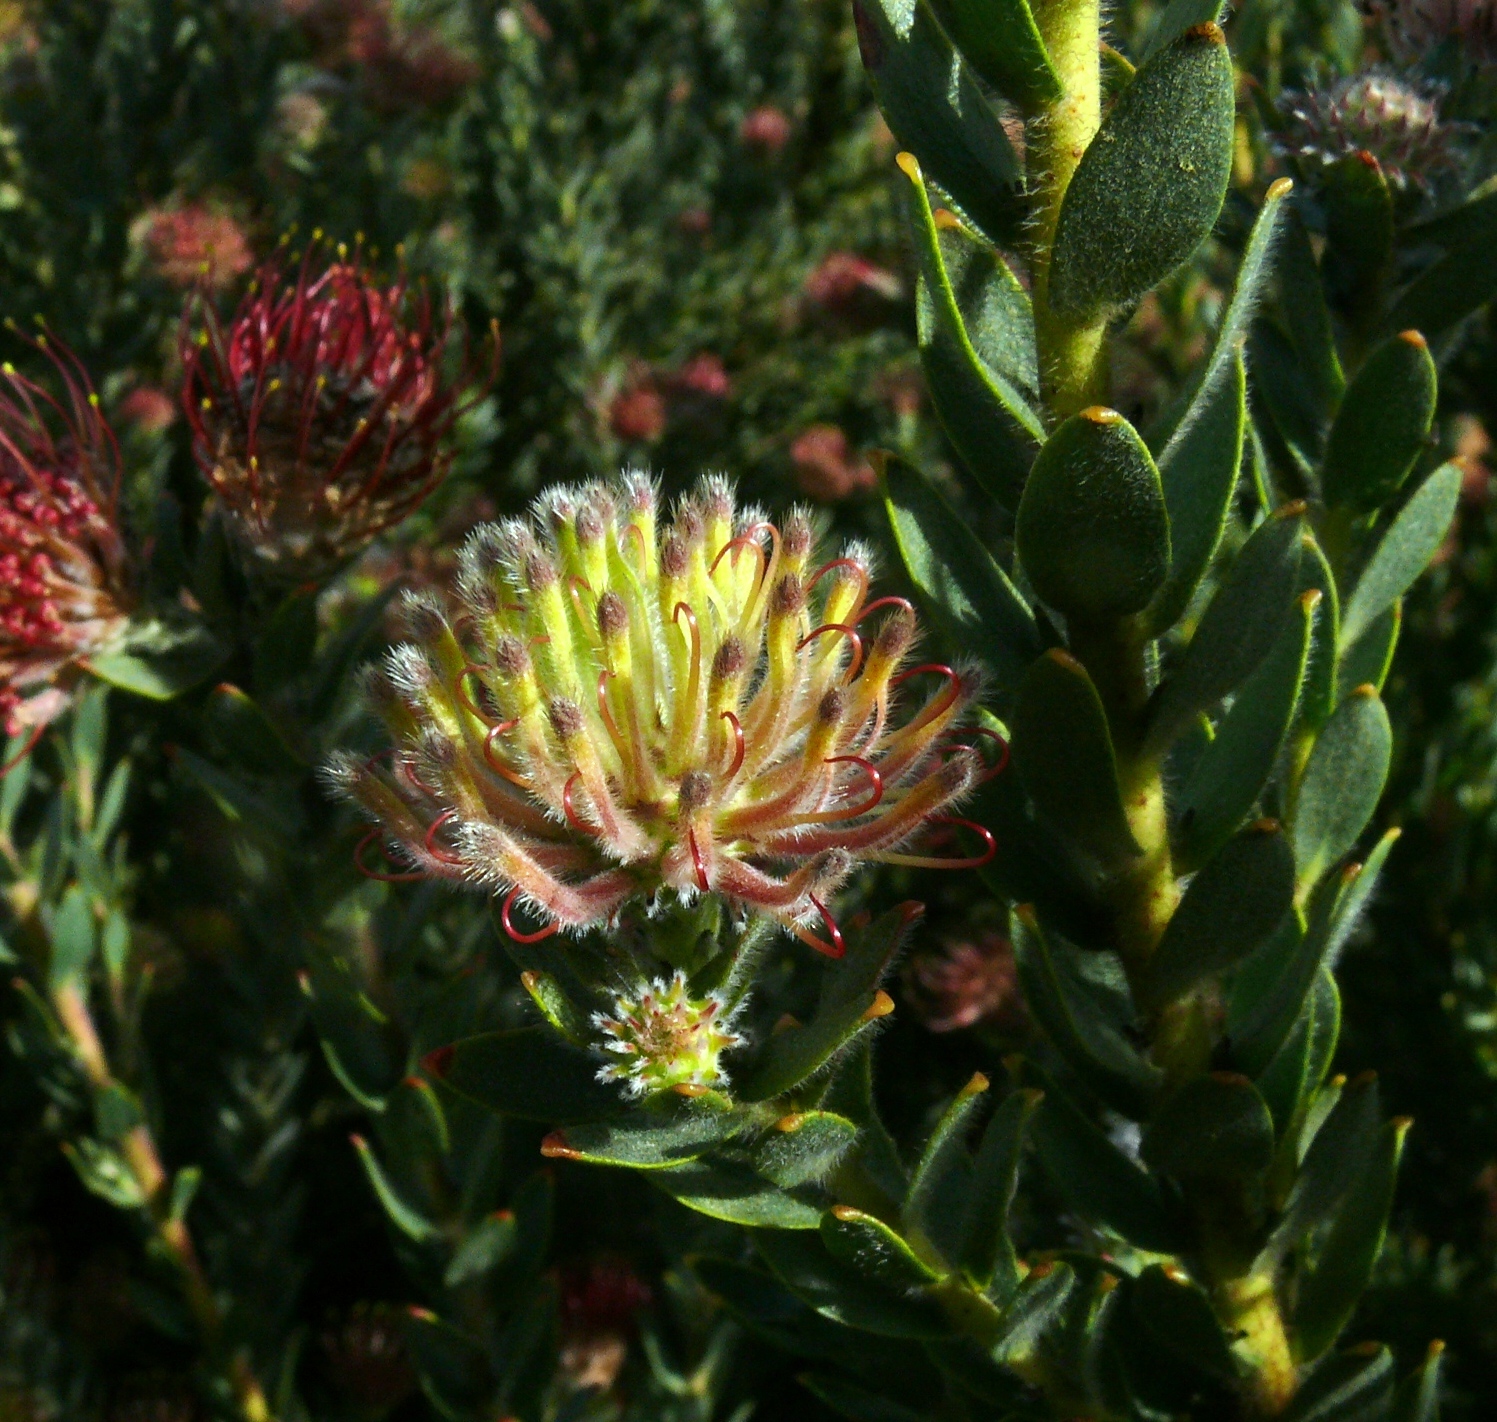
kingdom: Plantae
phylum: Tracheophyta
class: Magnoliopsida
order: Proteales
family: Proteaceae
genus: Leucospermum
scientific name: Leucospermum calligerum
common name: Arid pincushion
